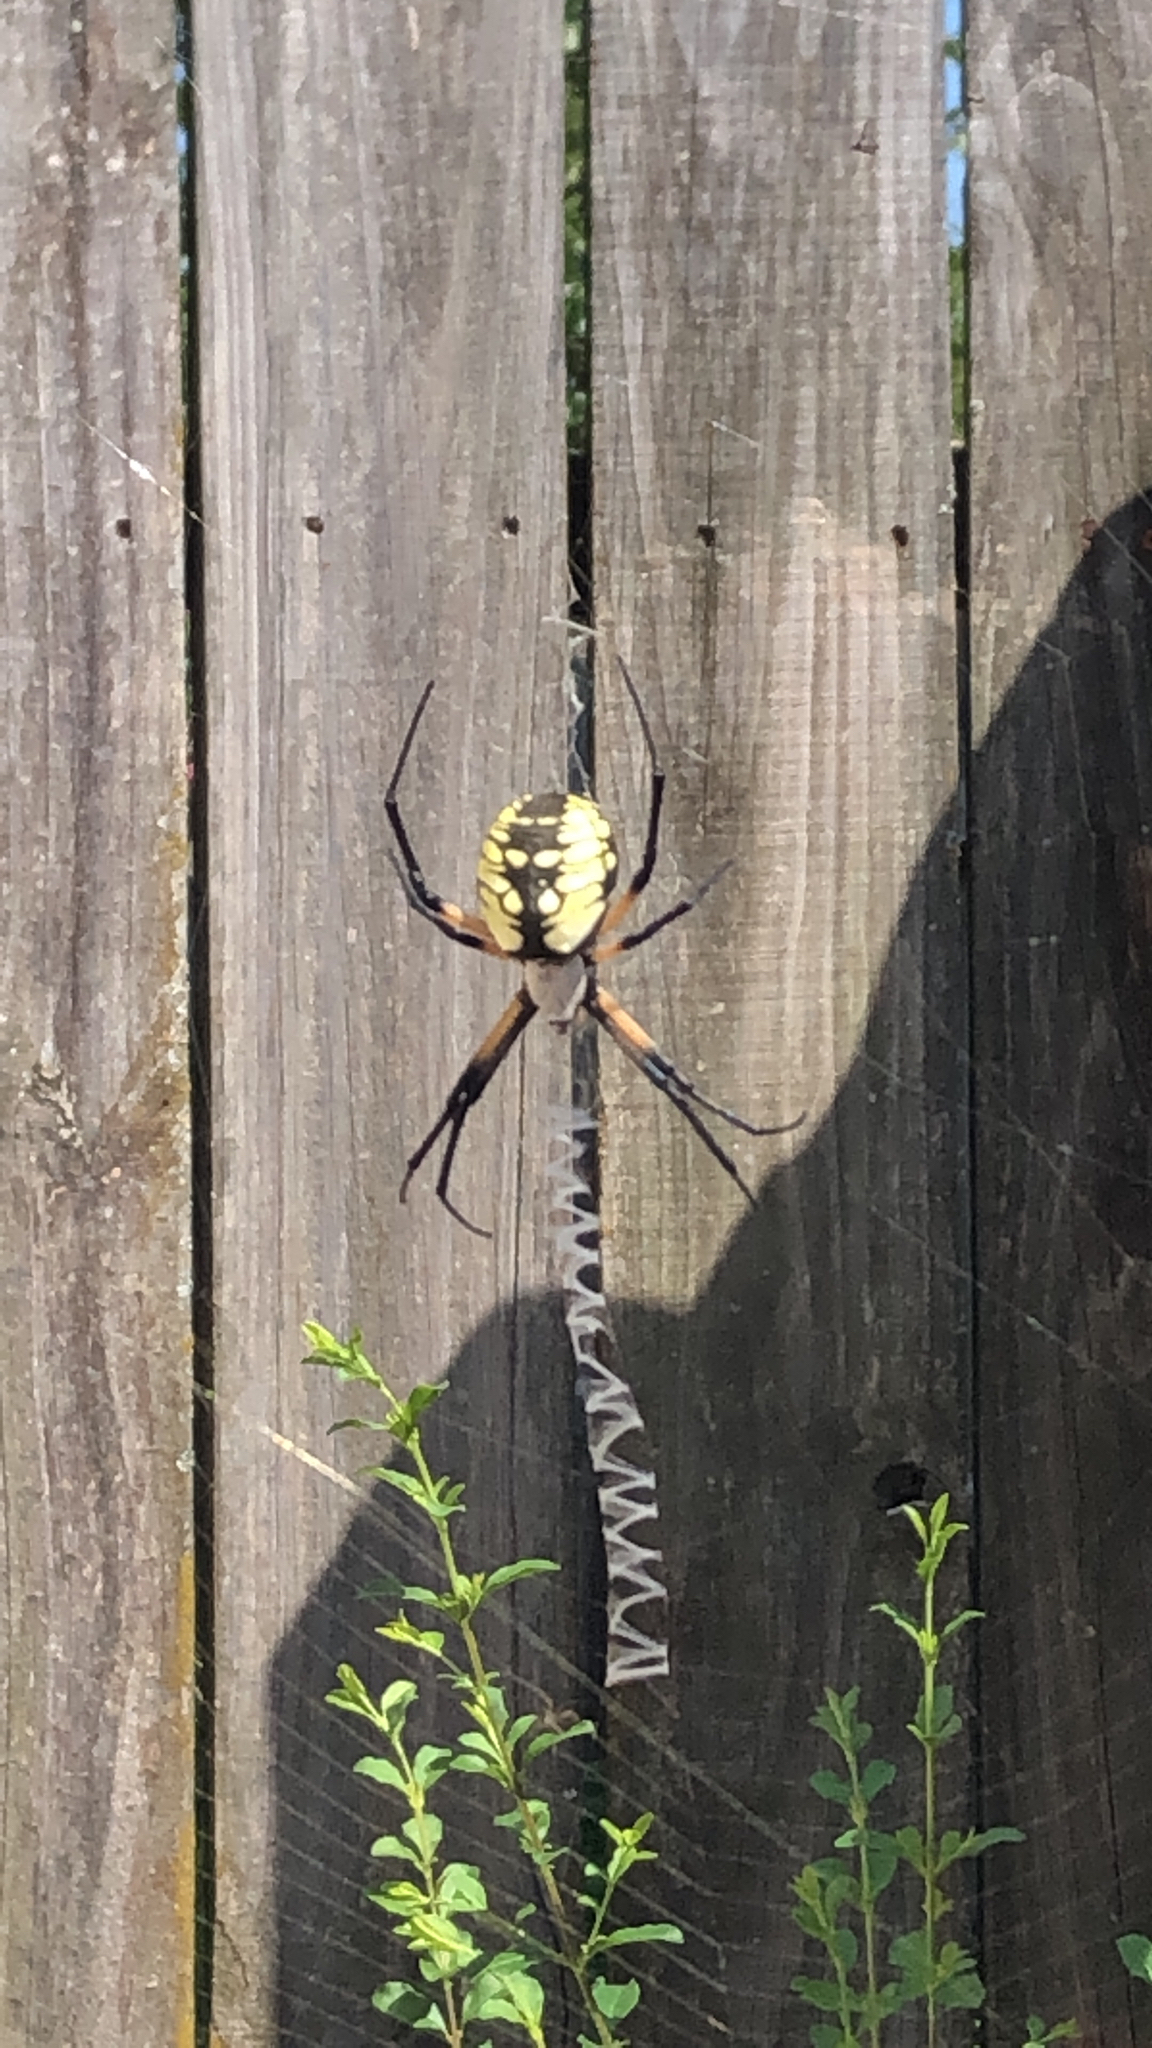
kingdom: Animalia
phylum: Arthropoda
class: Arachnida
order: Araneae
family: Araneidae
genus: Argiope
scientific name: Argiope aurantia
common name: Orb weavers
